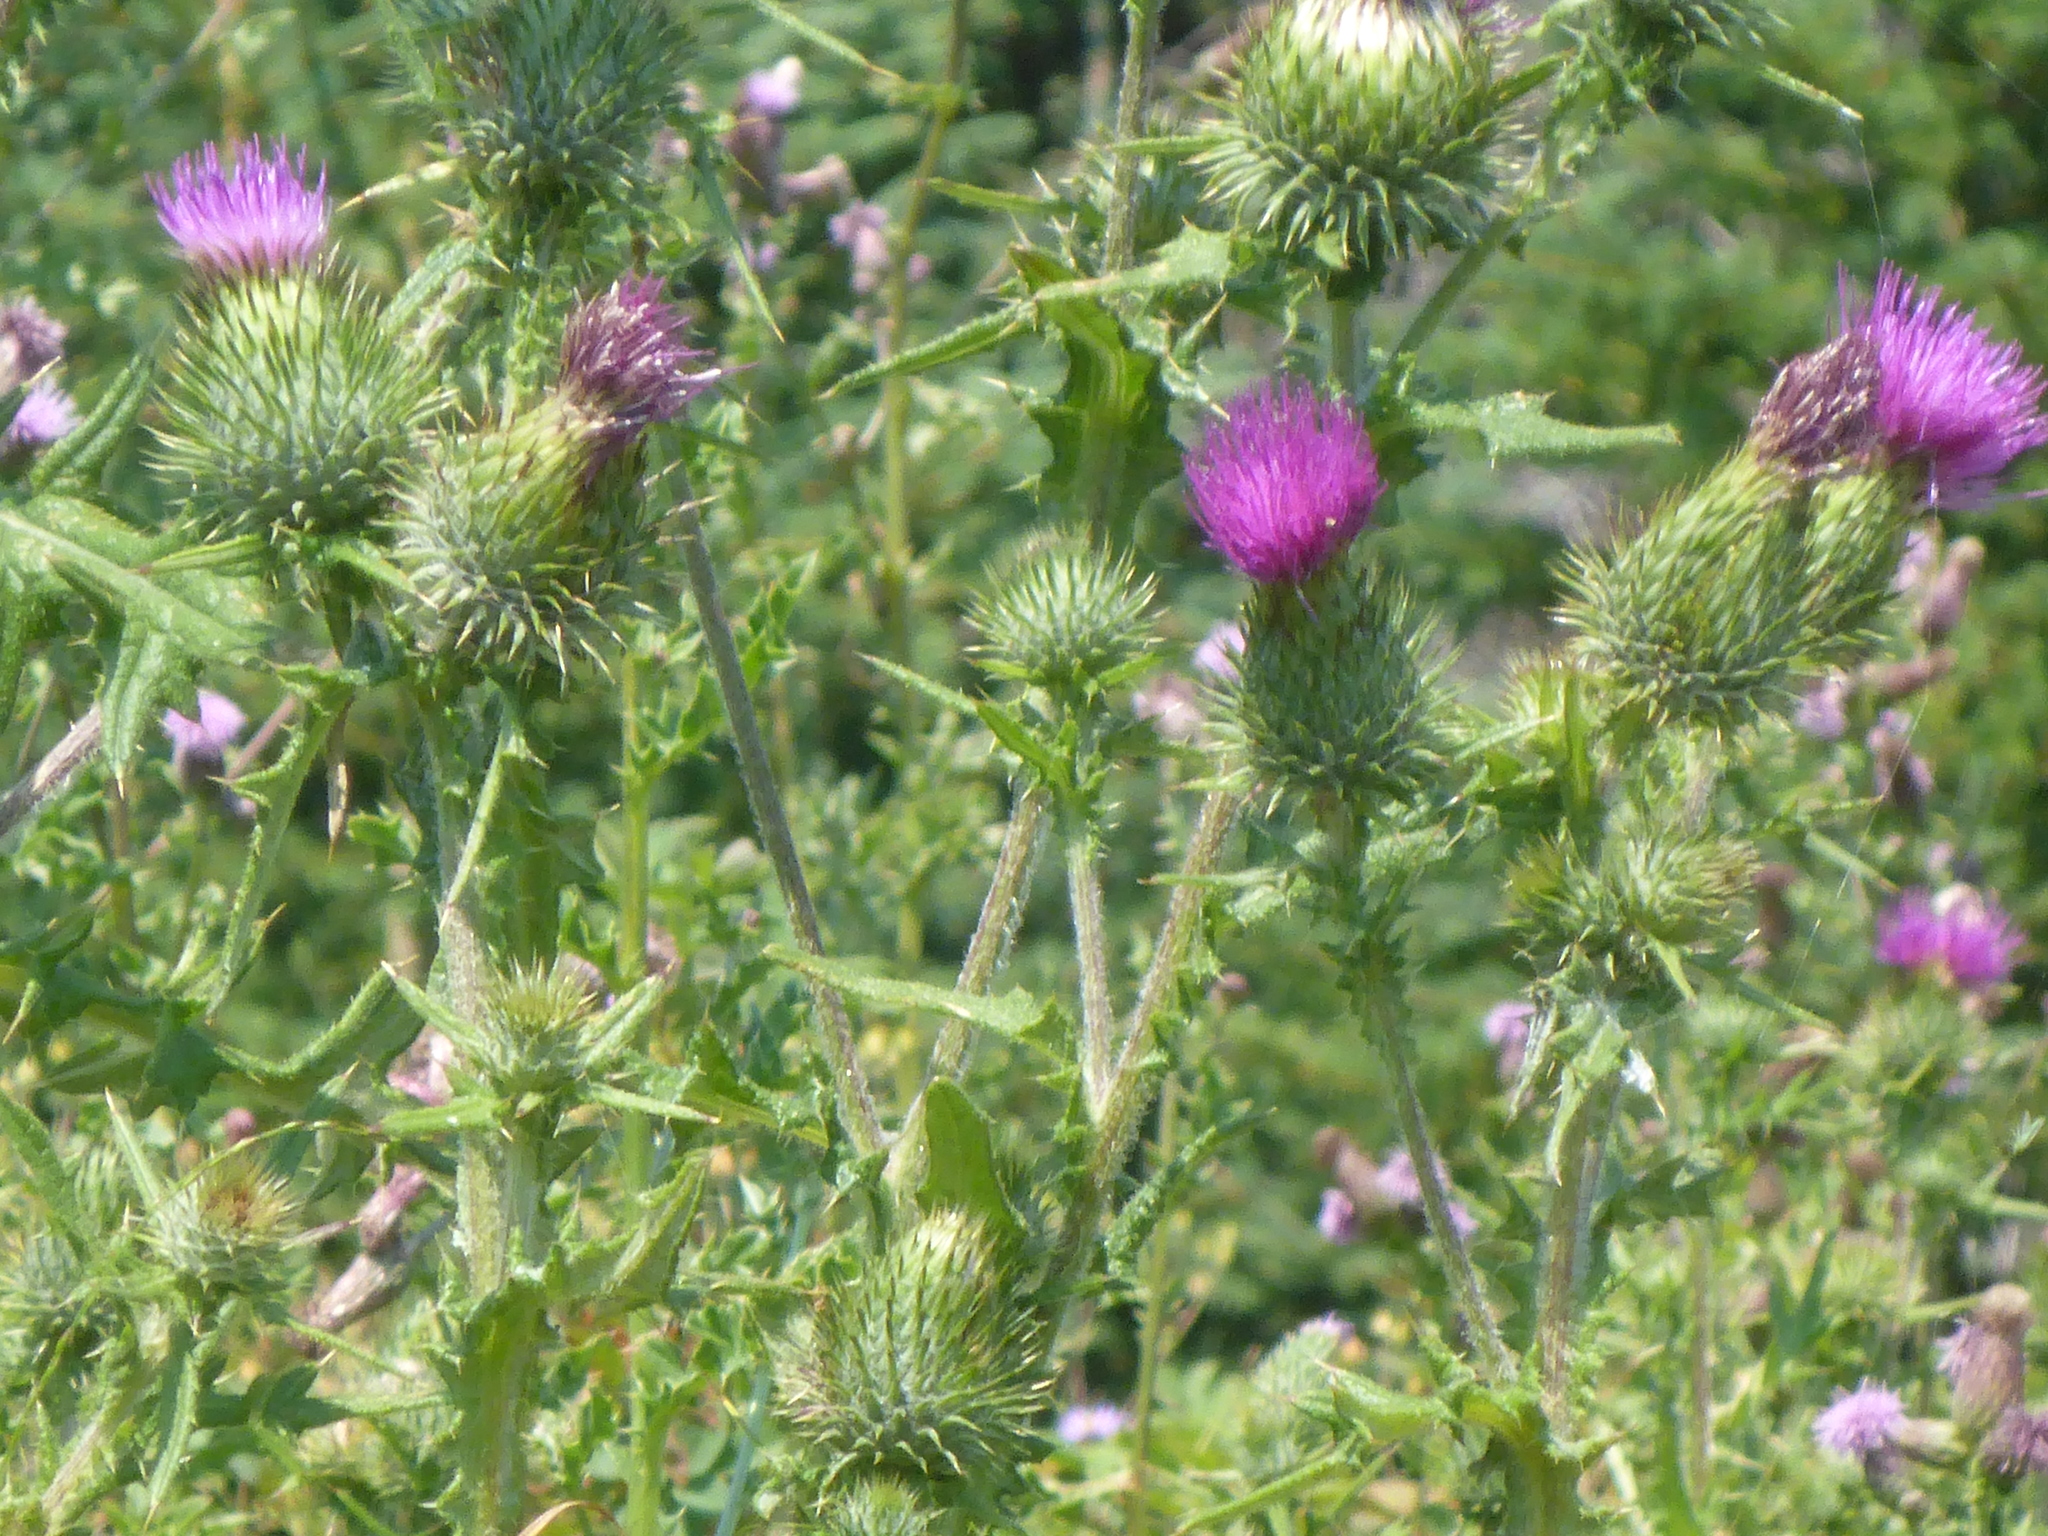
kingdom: Plantae
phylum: Tracheophyta
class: Magnoliopsida
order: Asterales
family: Asteraceae
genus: Cirsium
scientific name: Cirsium vulgare
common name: Bull thistle
